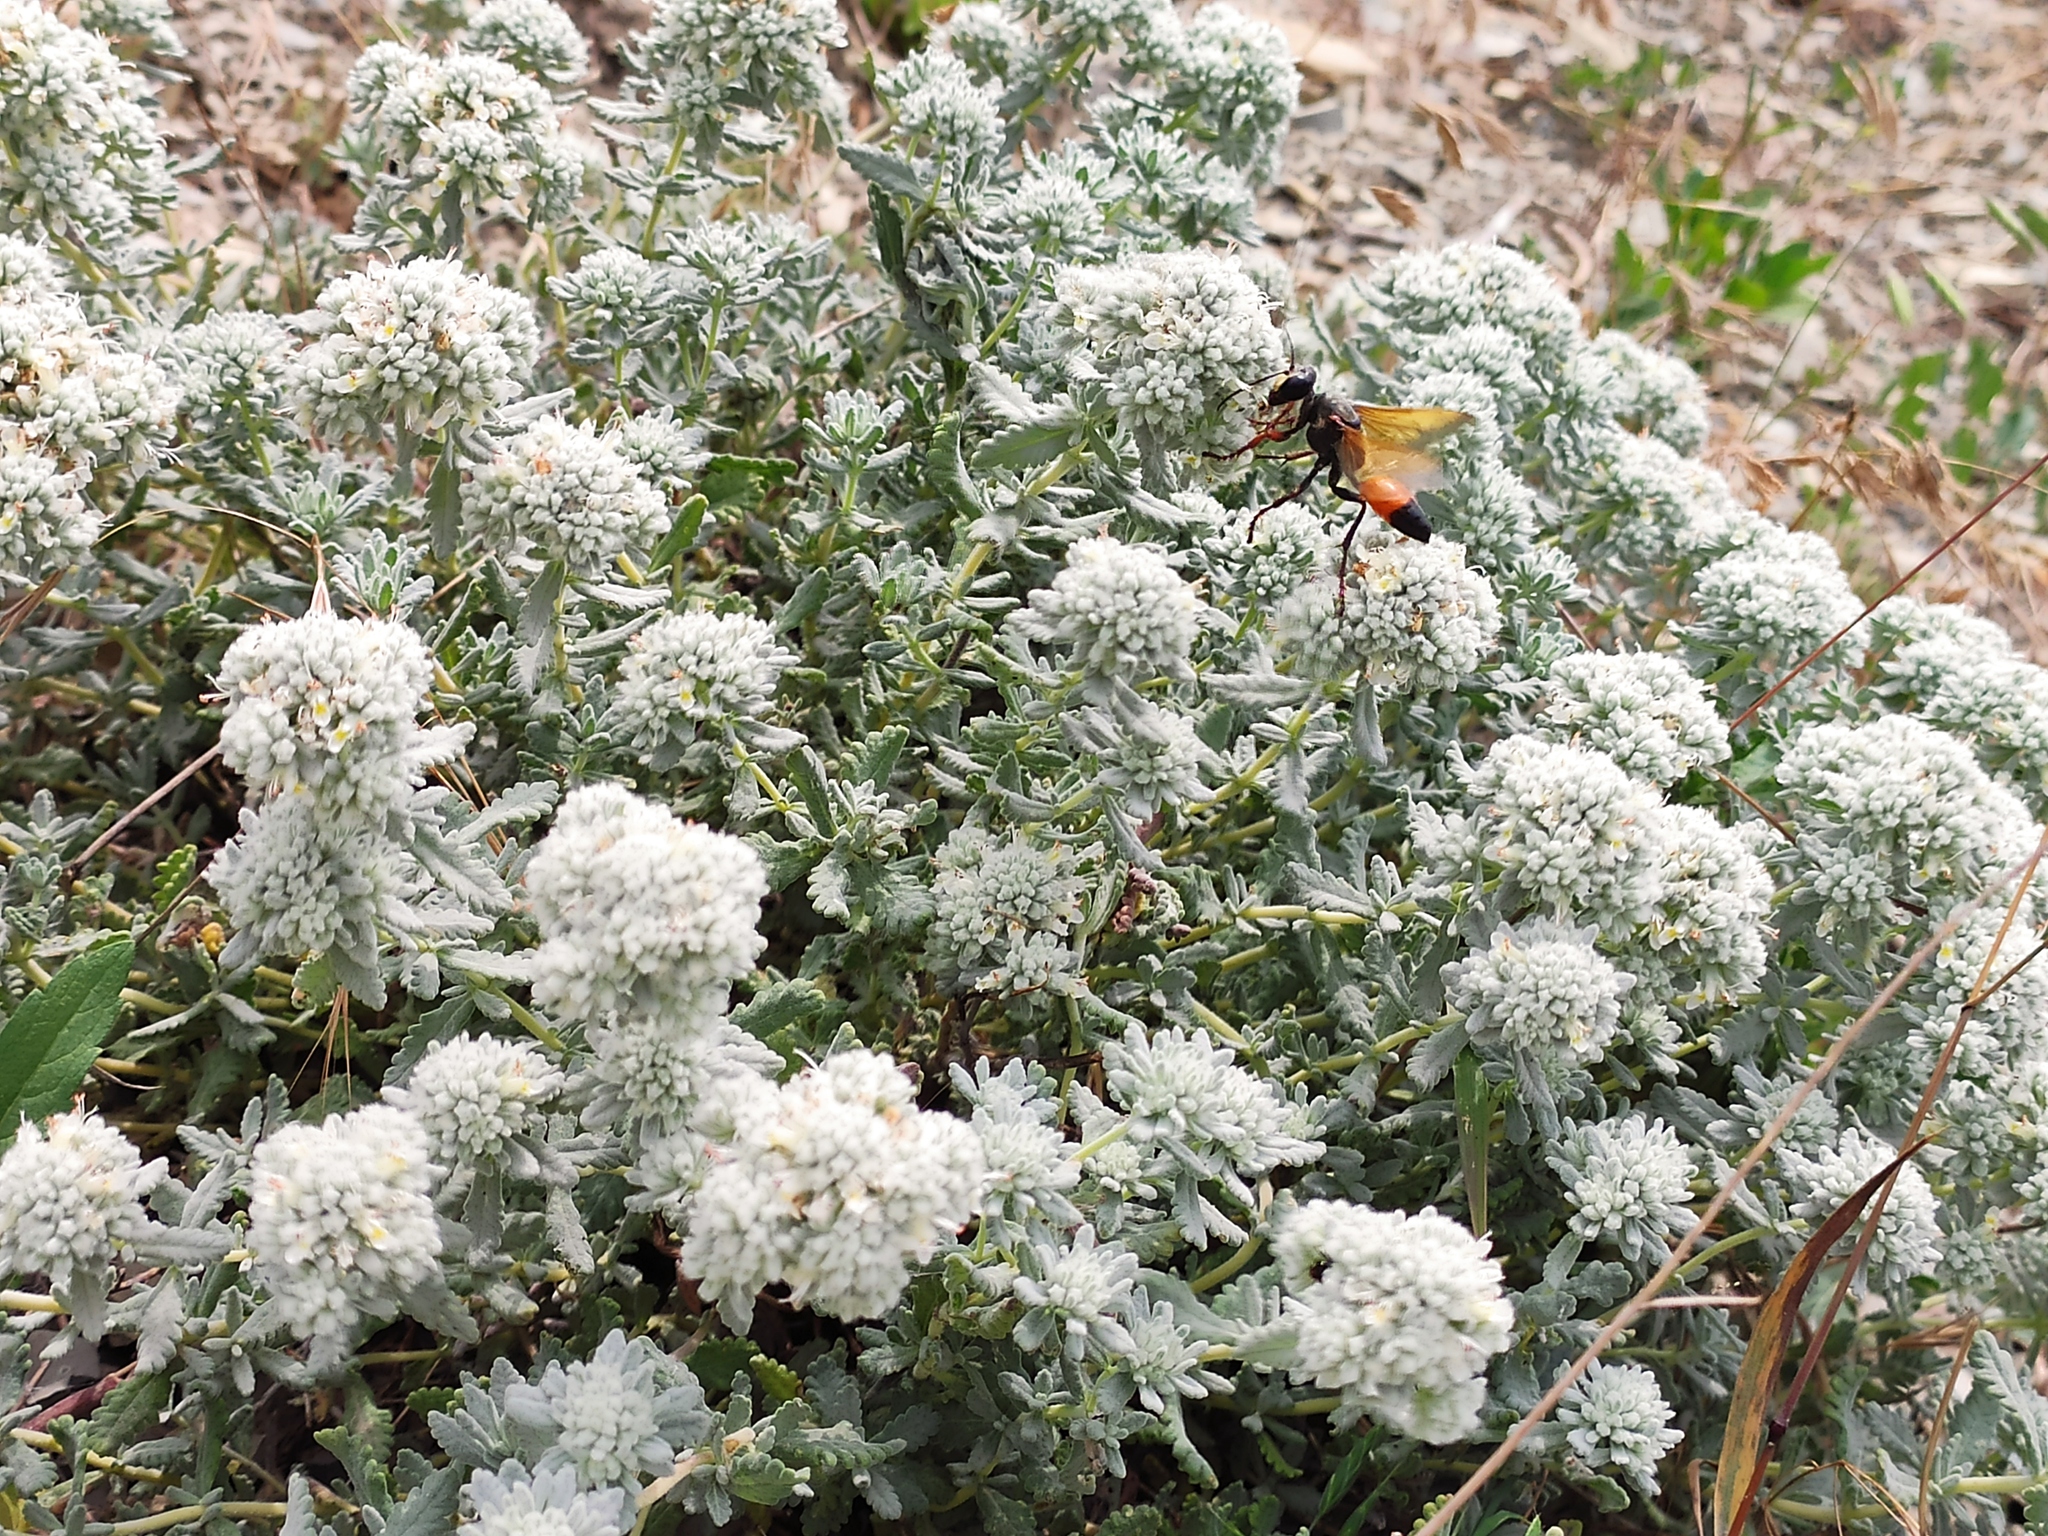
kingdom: Animalia
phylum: Arthropoda
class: Insecta
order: Hymenoptera
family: Sphecidae
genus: Sphex
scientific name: Sphex flavipennis
